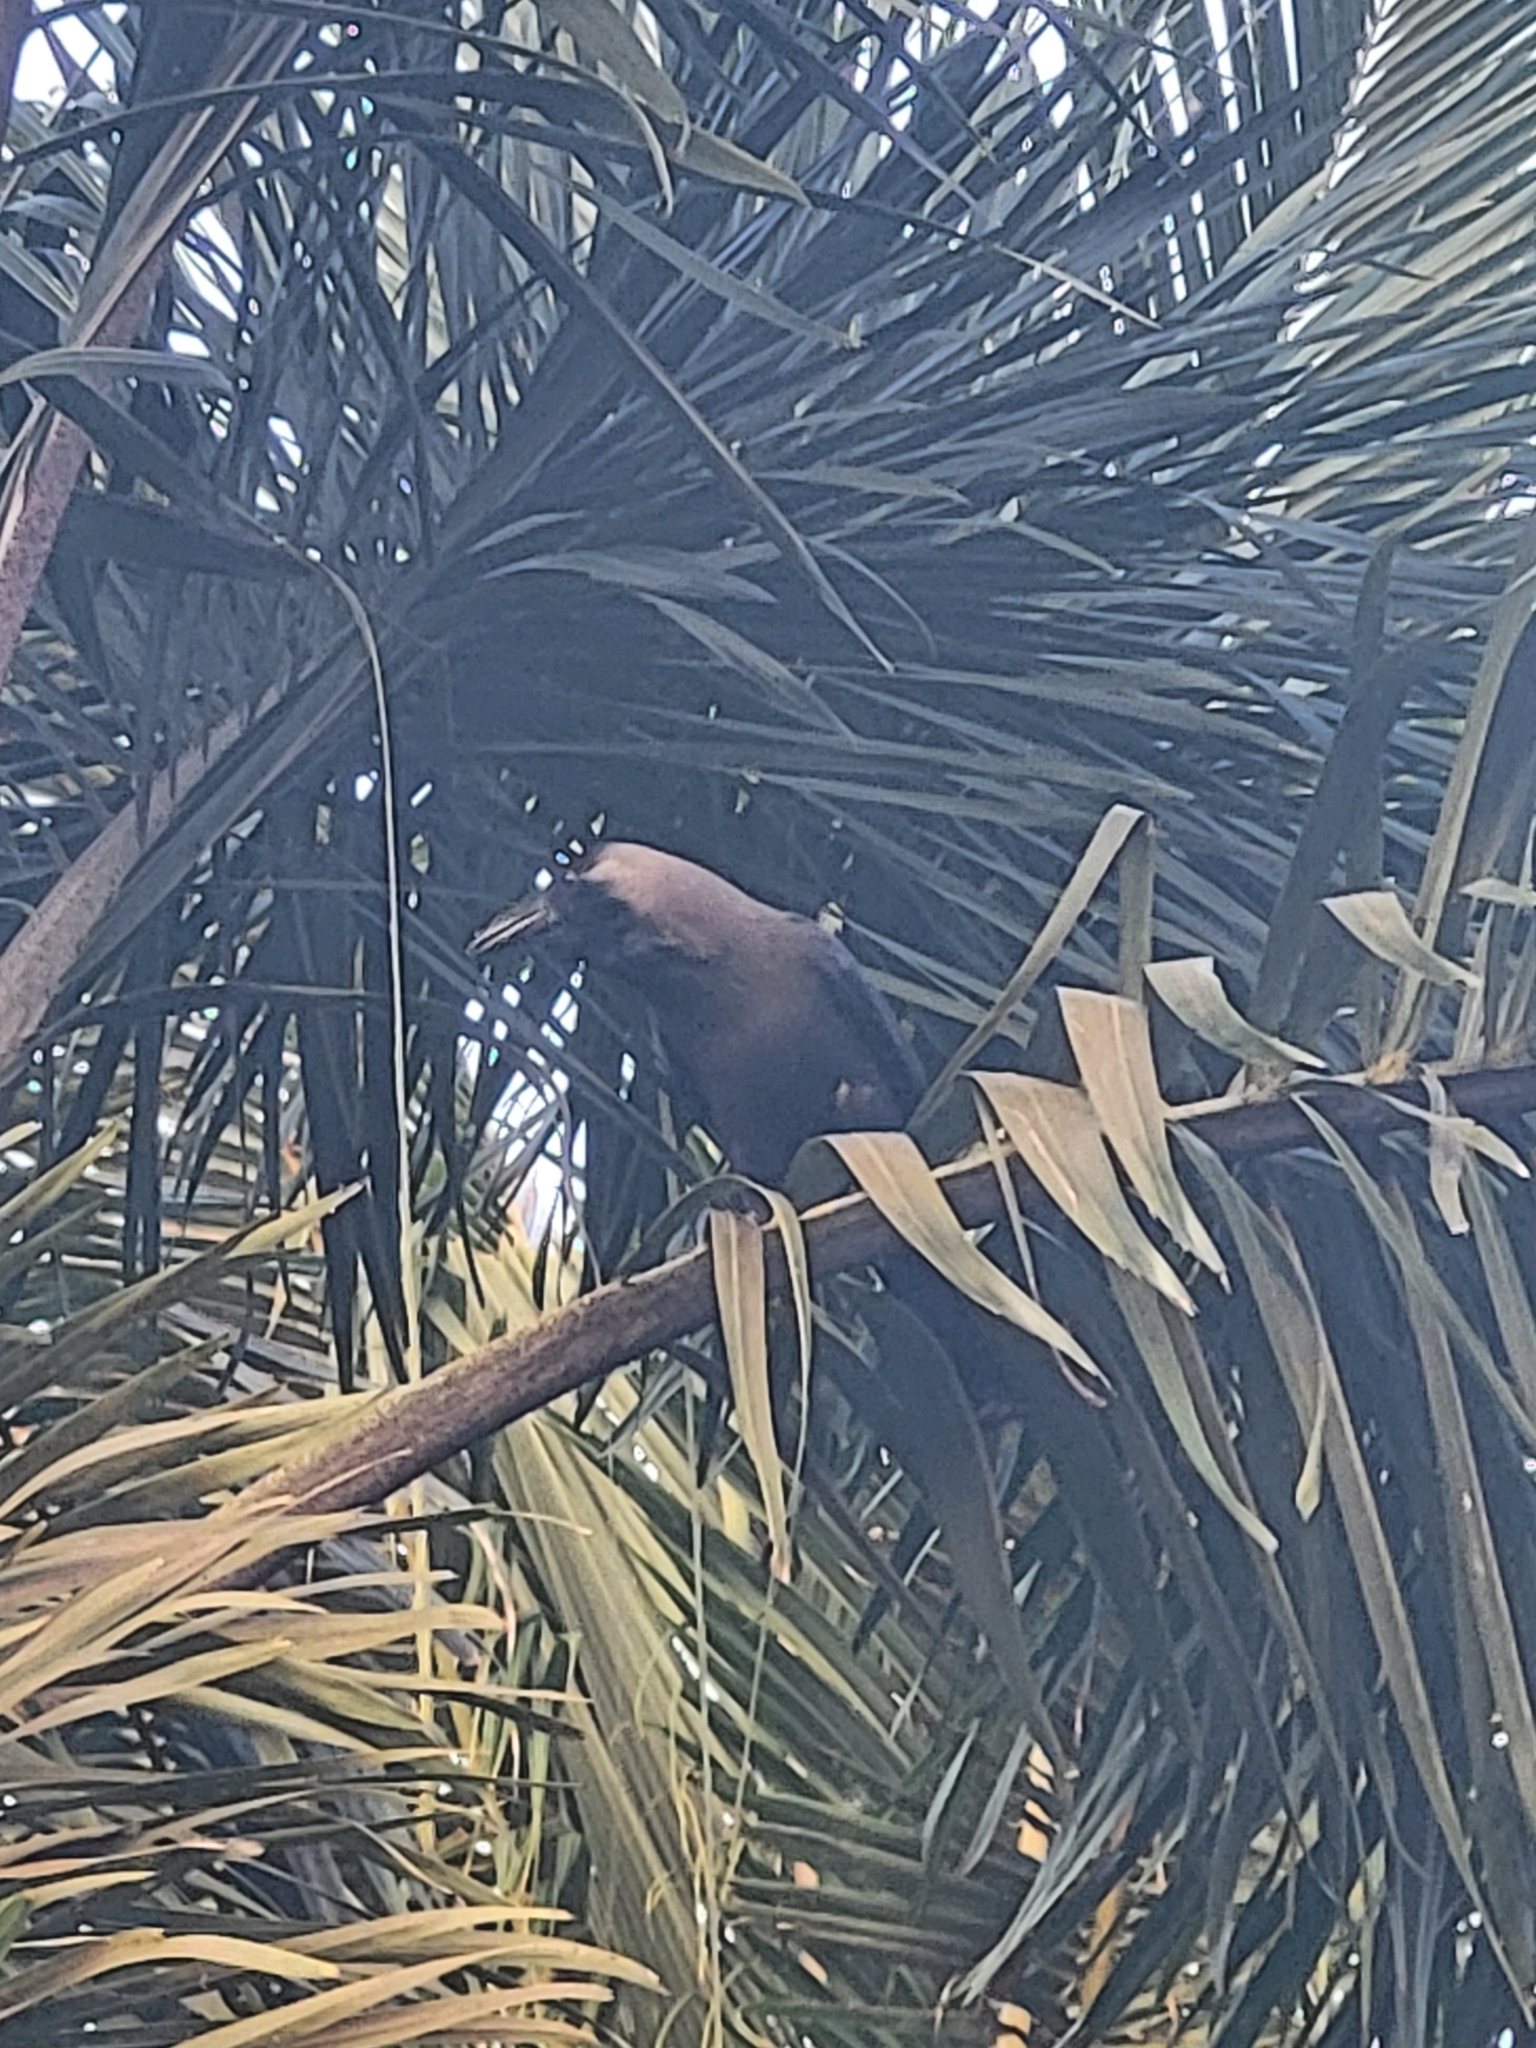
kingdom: Animalia
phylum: Chordata
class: Aves
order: Passeriformes
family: Corvidae
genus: Corvus
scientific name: Corvus splendens
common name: House crow
